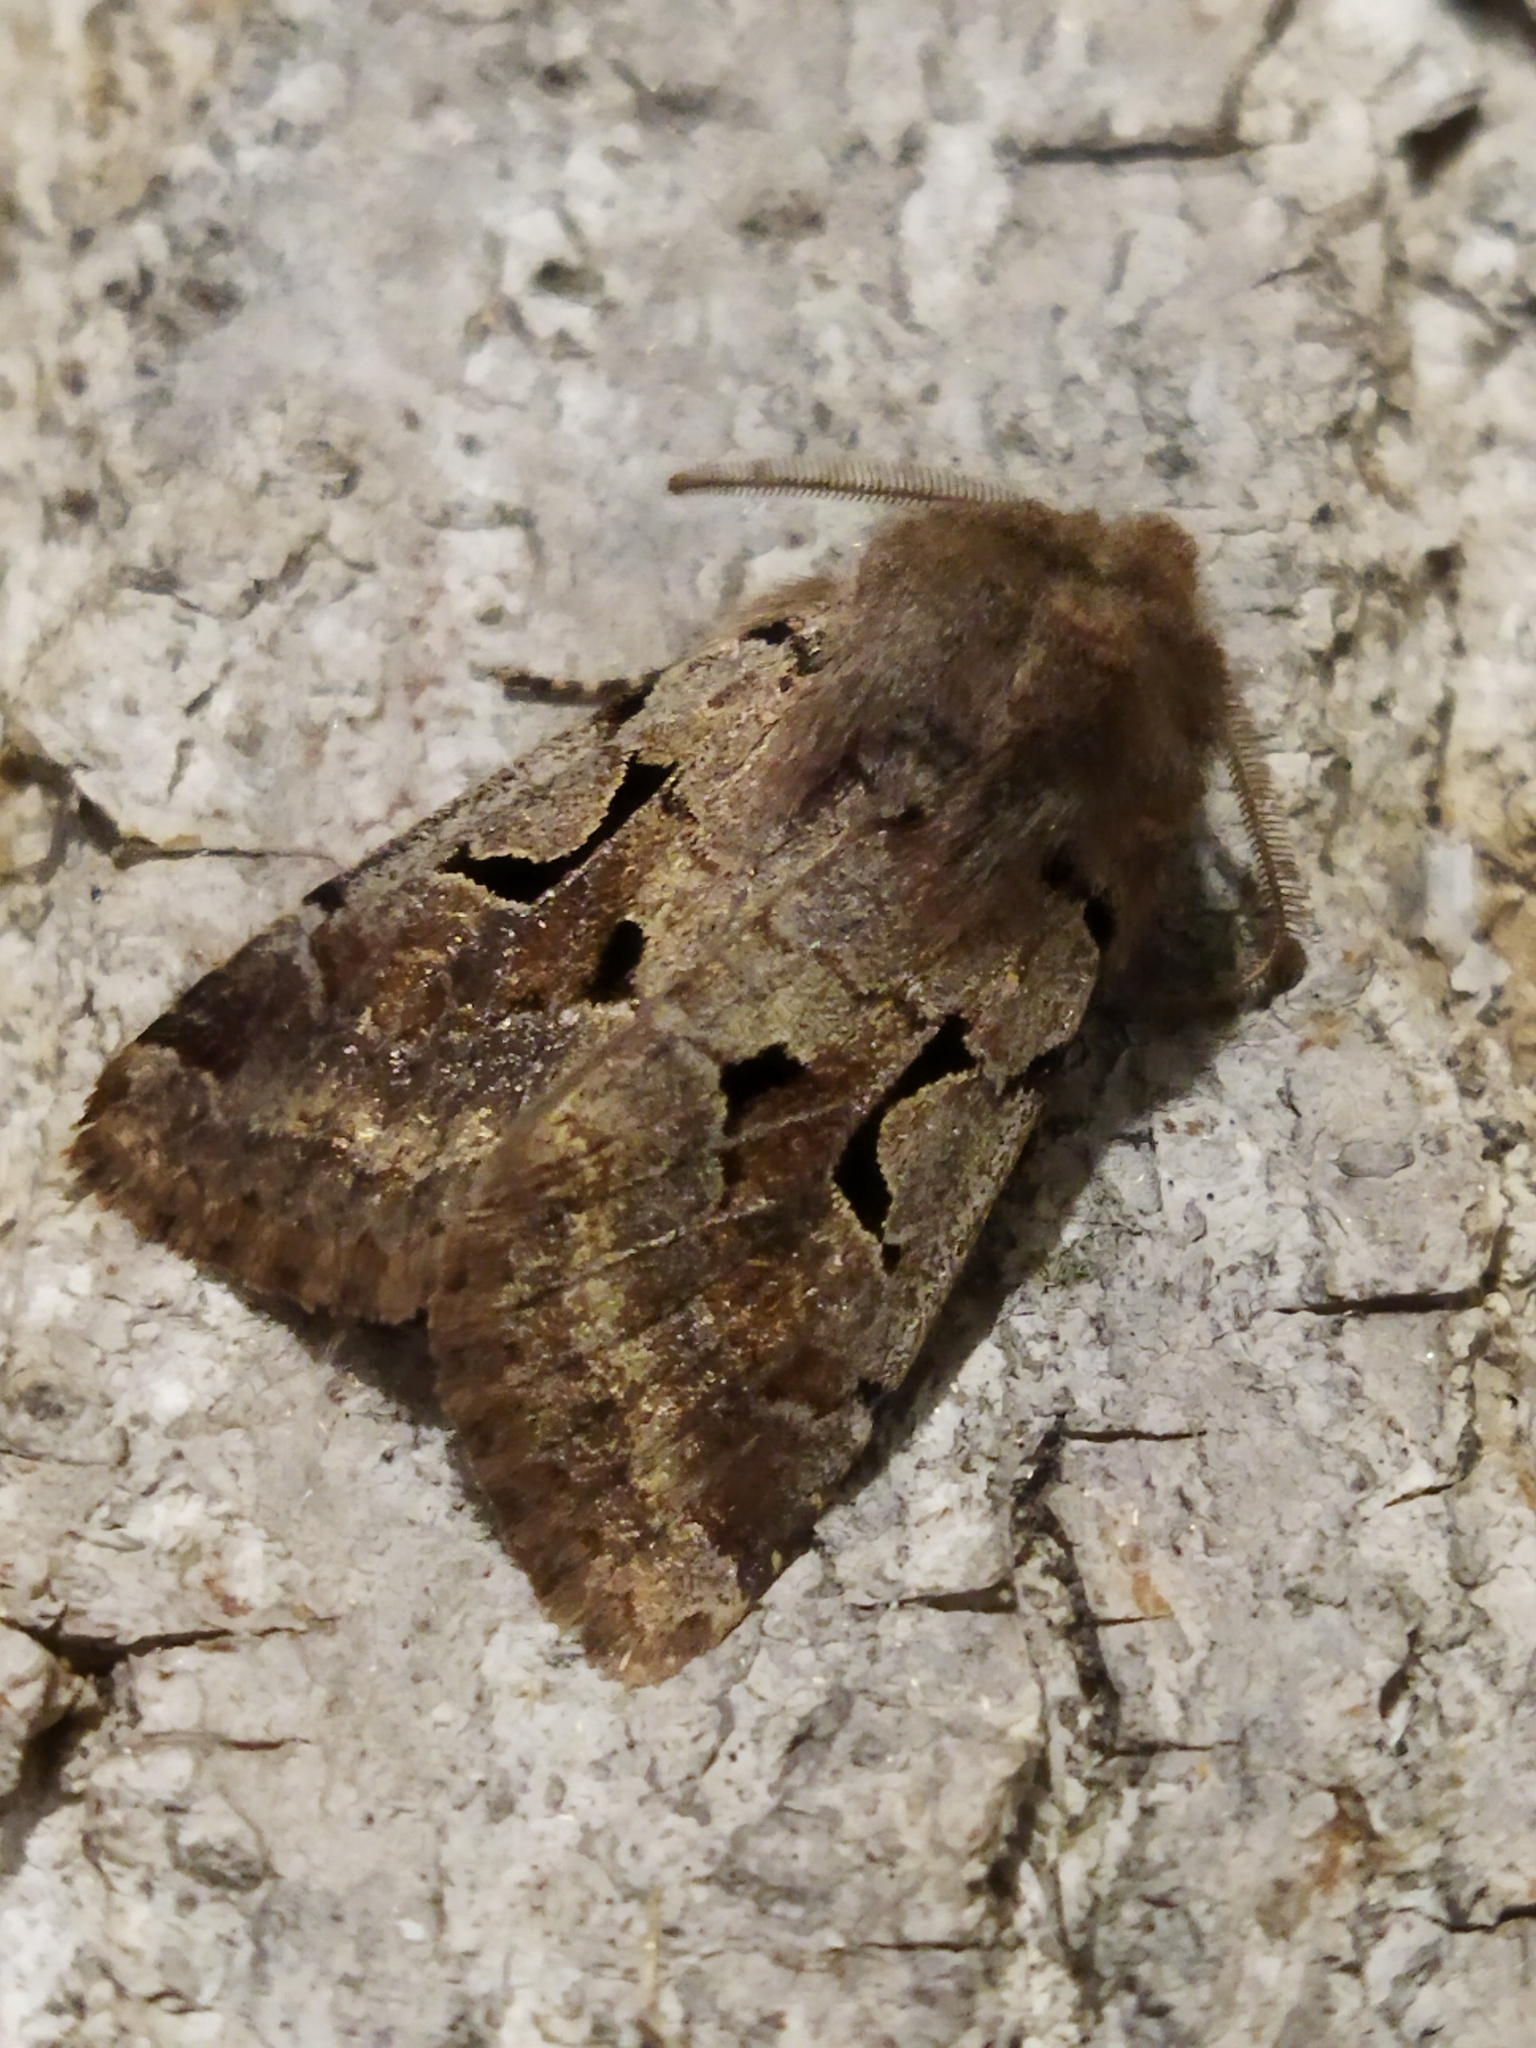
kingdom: Animalia
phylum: Arthropoda
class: Insecta
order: Lepidoptera
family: Noctuidae
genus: Orthosia
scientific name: Orthosia gothica
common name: Hebrew character
